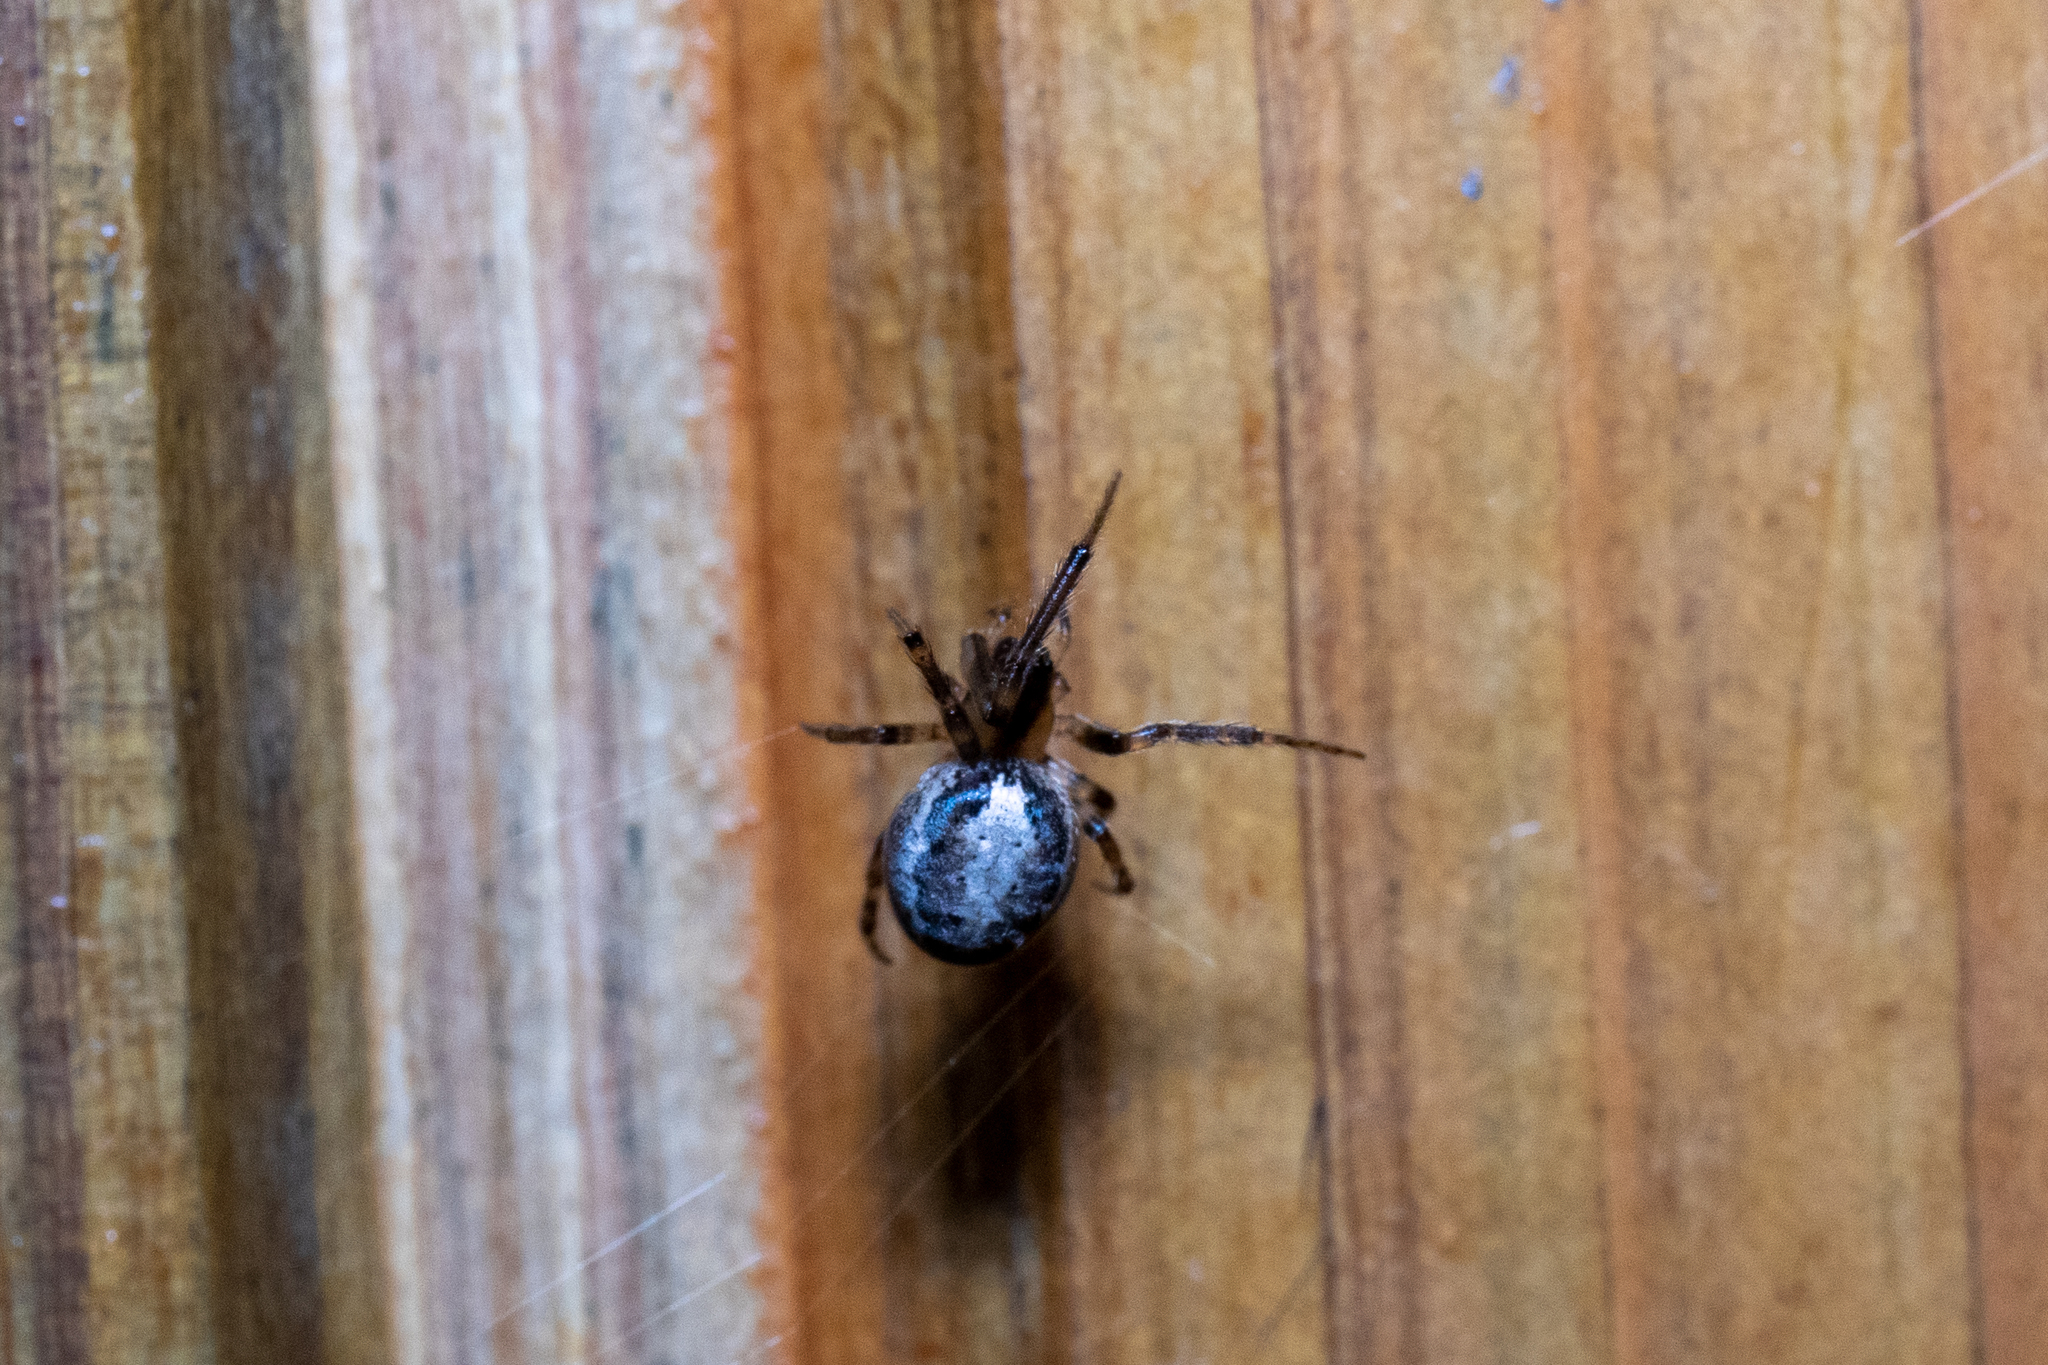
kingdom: Animalia
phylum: Arthropoda
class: Arachnida
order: Araneae
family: Araneidae
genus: Zygiella
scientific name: Zygiella x-notata
